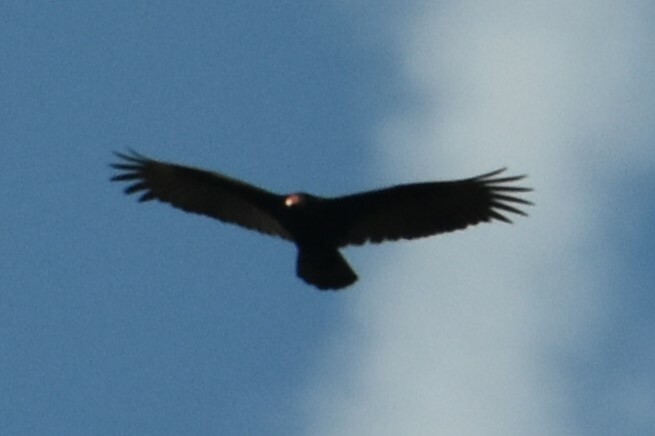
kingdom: Animalia
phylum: Chordata
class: Aves
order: Accipitriformes
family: Cathartidae
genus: Cathartes
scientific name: Cathartes aura
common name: Turkey vulture
